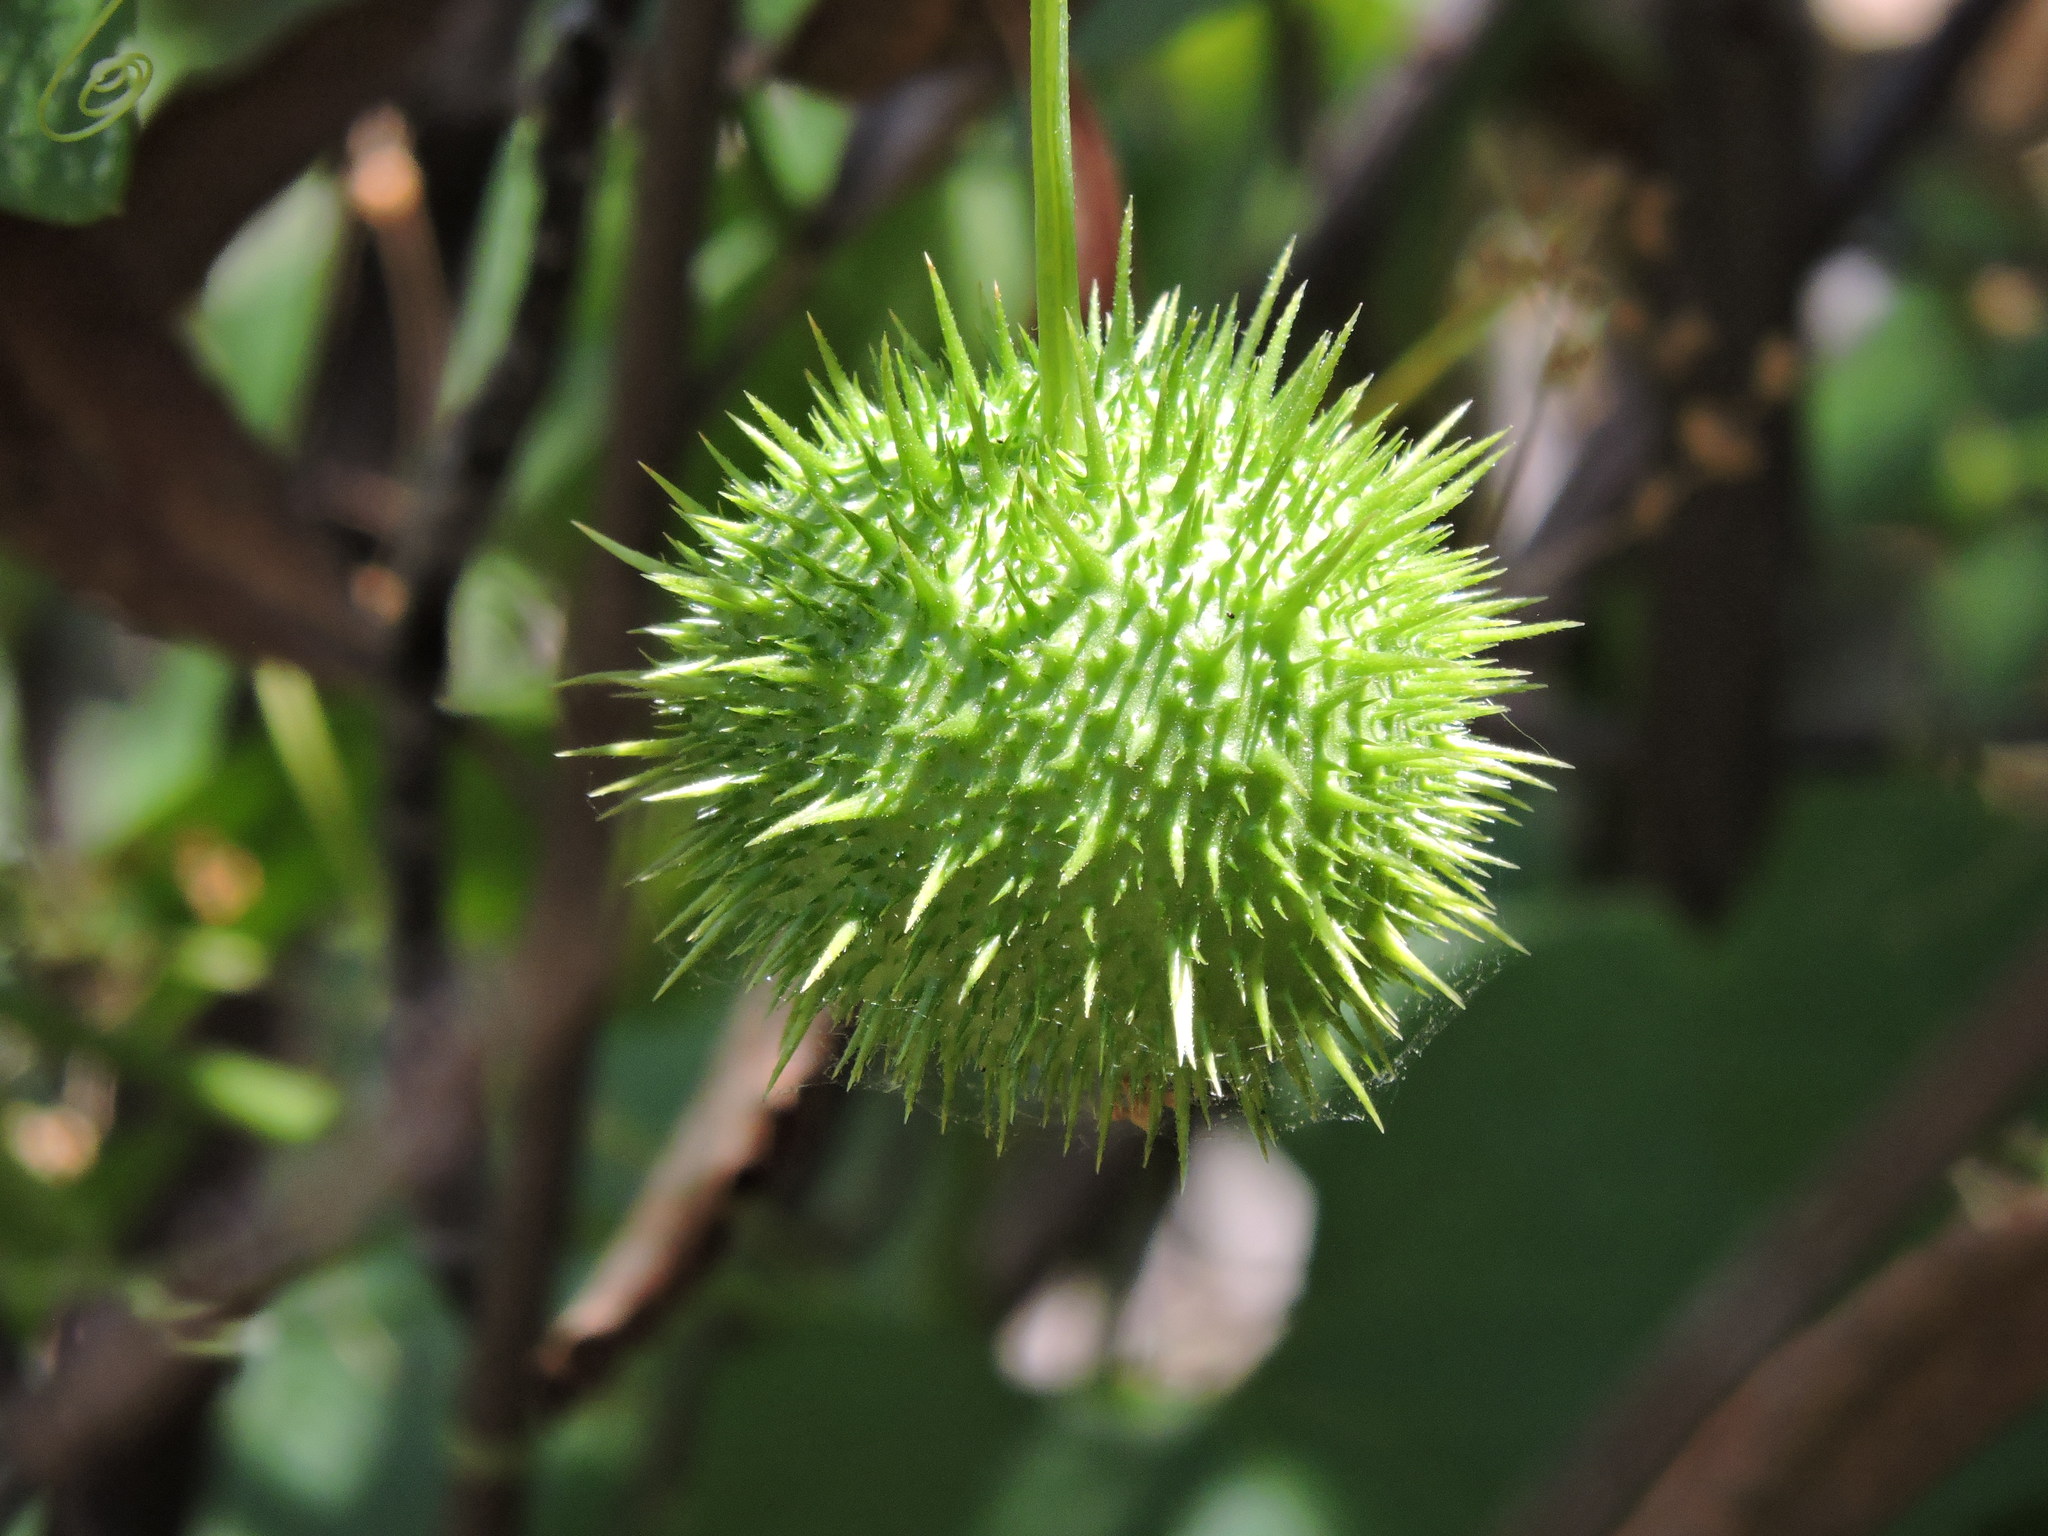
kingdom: Plantae
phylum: Tracheophyta
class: Magnoliopsida
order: Cucurbitales
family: Cucurbitaceae
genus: Marah
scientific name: Marah oregana
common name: Coastal manroot
